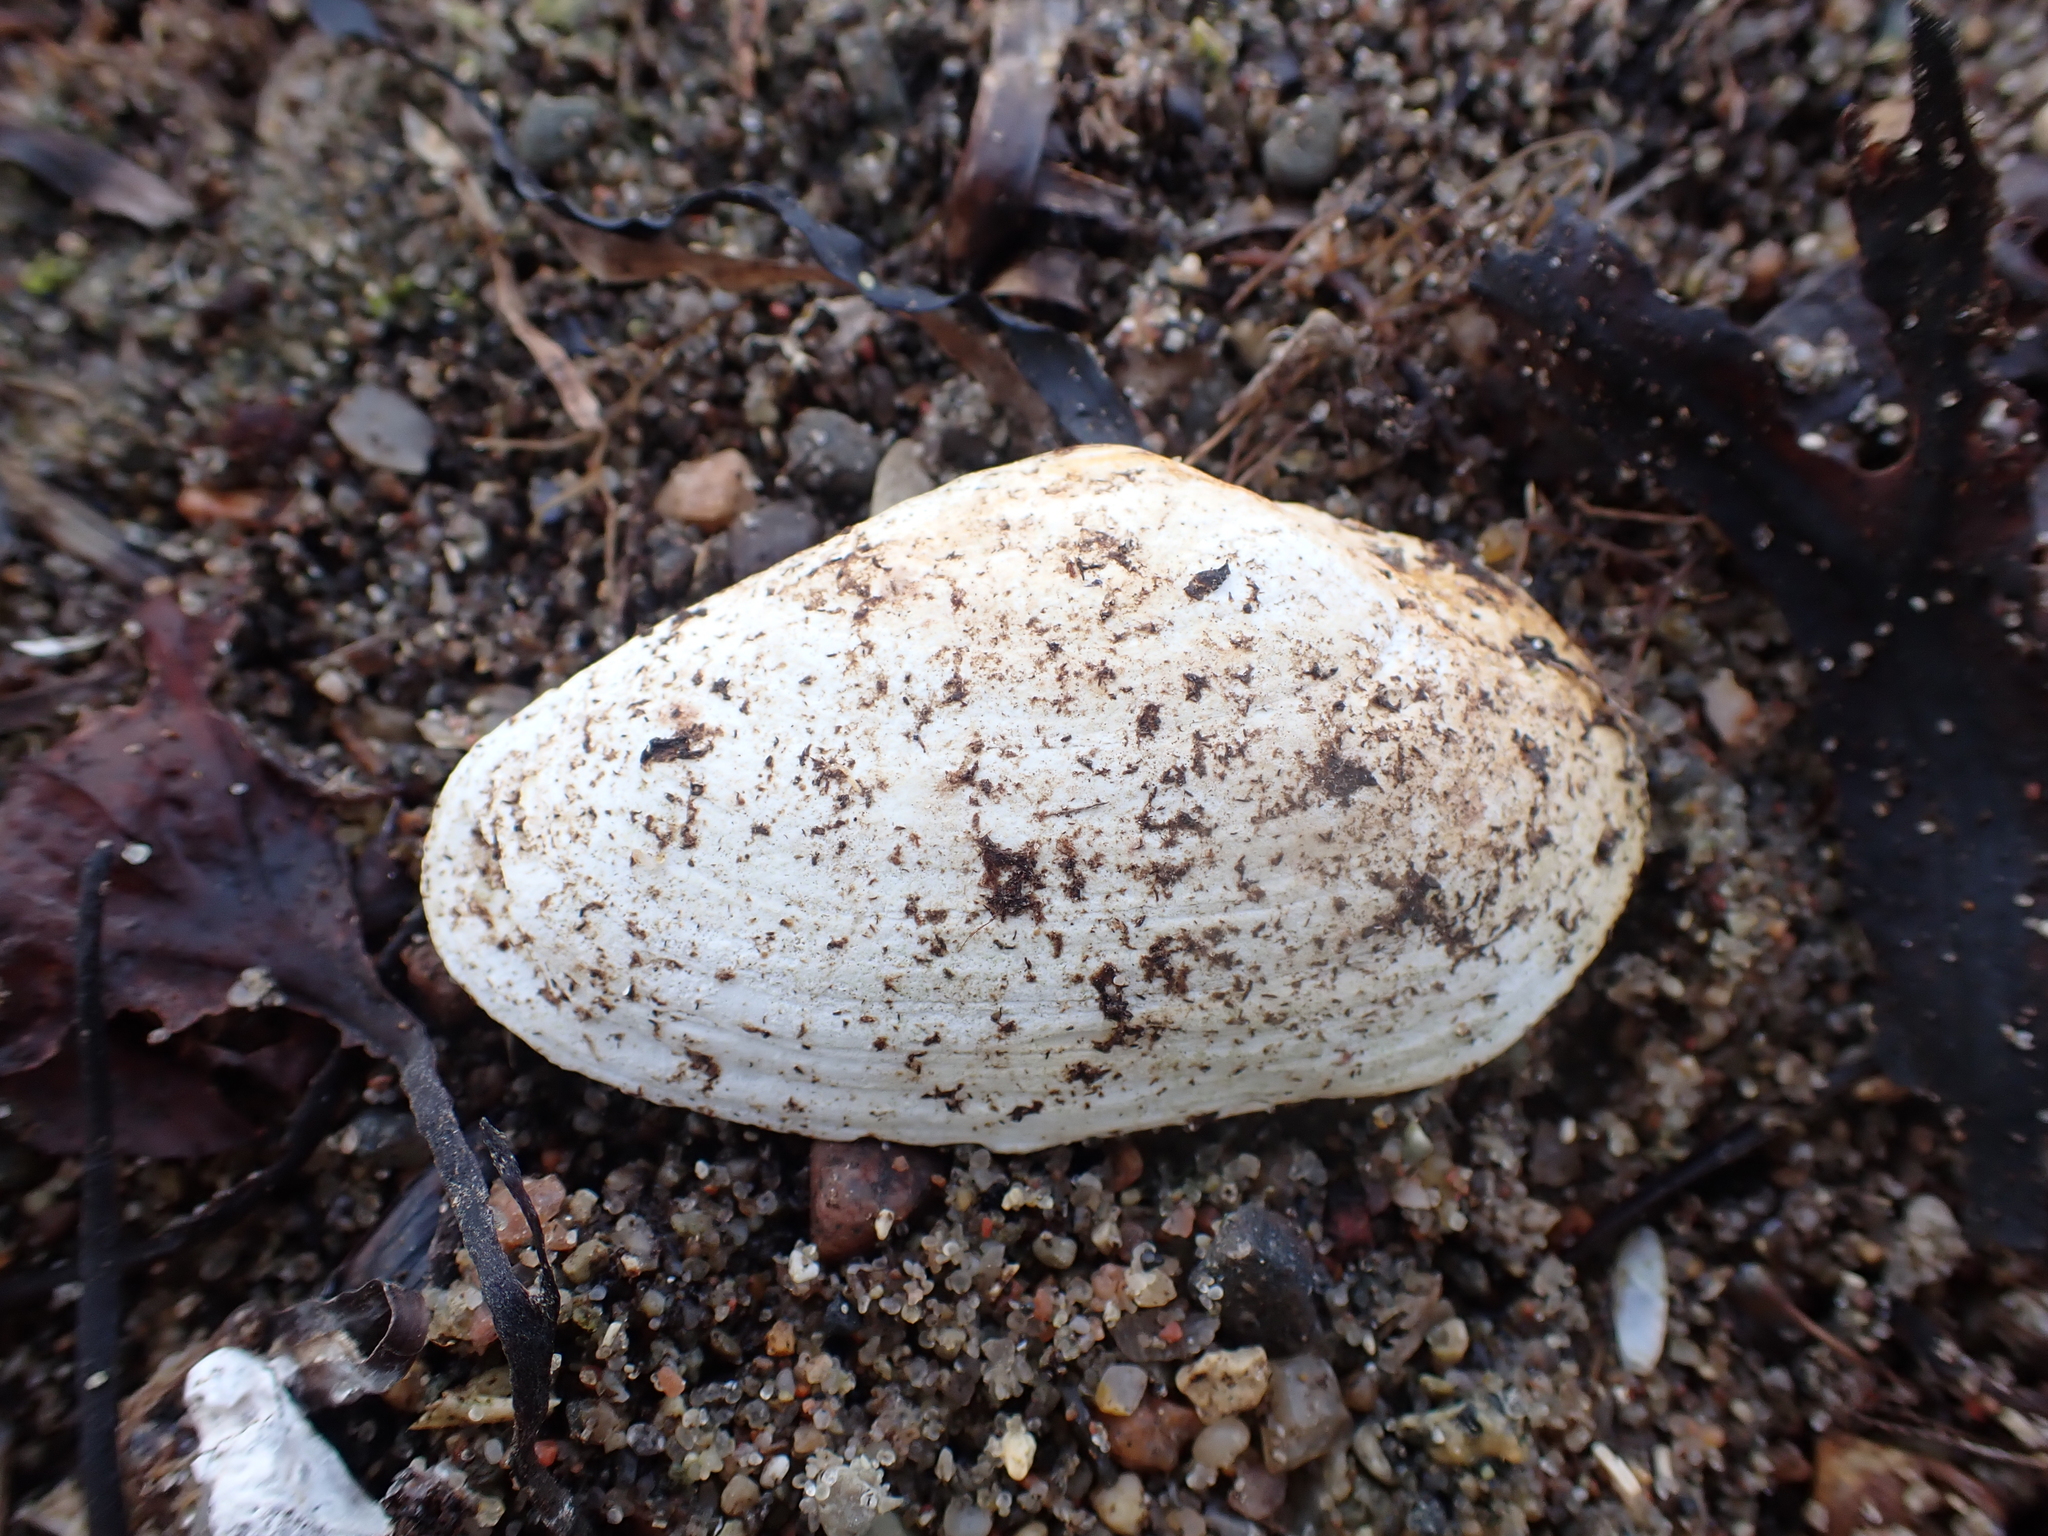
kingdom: Animalia
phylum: Mollusca
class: Bivalvia
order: Myida
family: Myidae
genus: Mya
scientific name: Mya arenaria
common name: Soft-shelled clam
